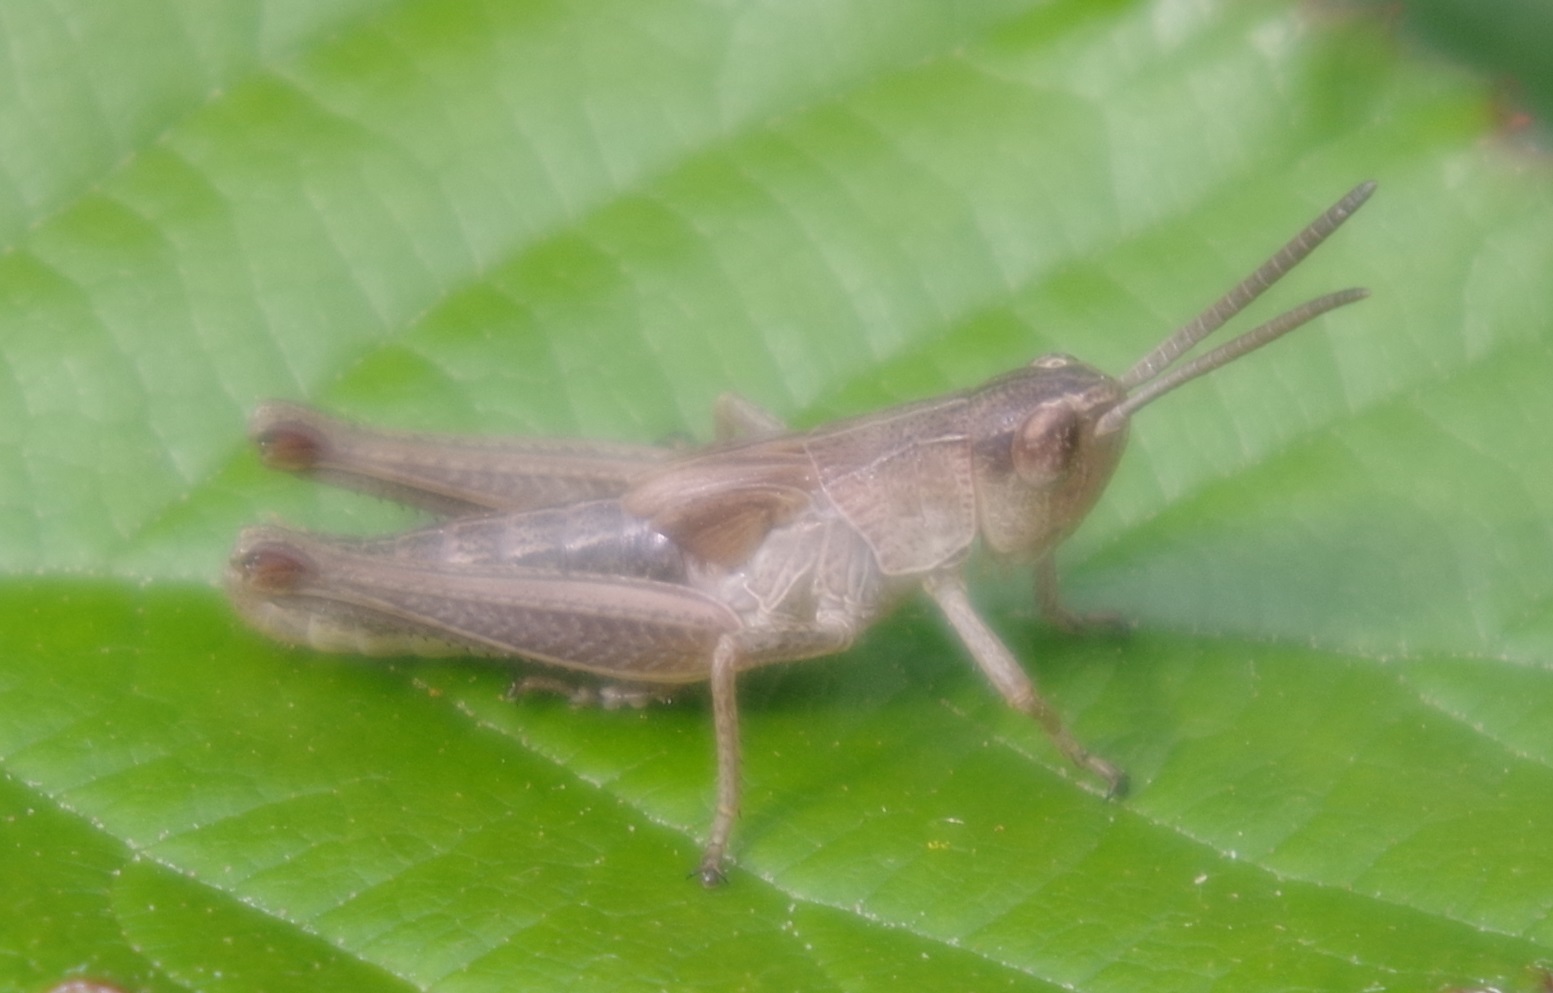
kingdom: Animalia
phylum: Arthropoda
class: Insecta
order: Orthoptera
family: Acrididae
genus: Pseudochorthippus
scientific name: Pseudochorthippus parallelus
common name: Meadow grasshopper
